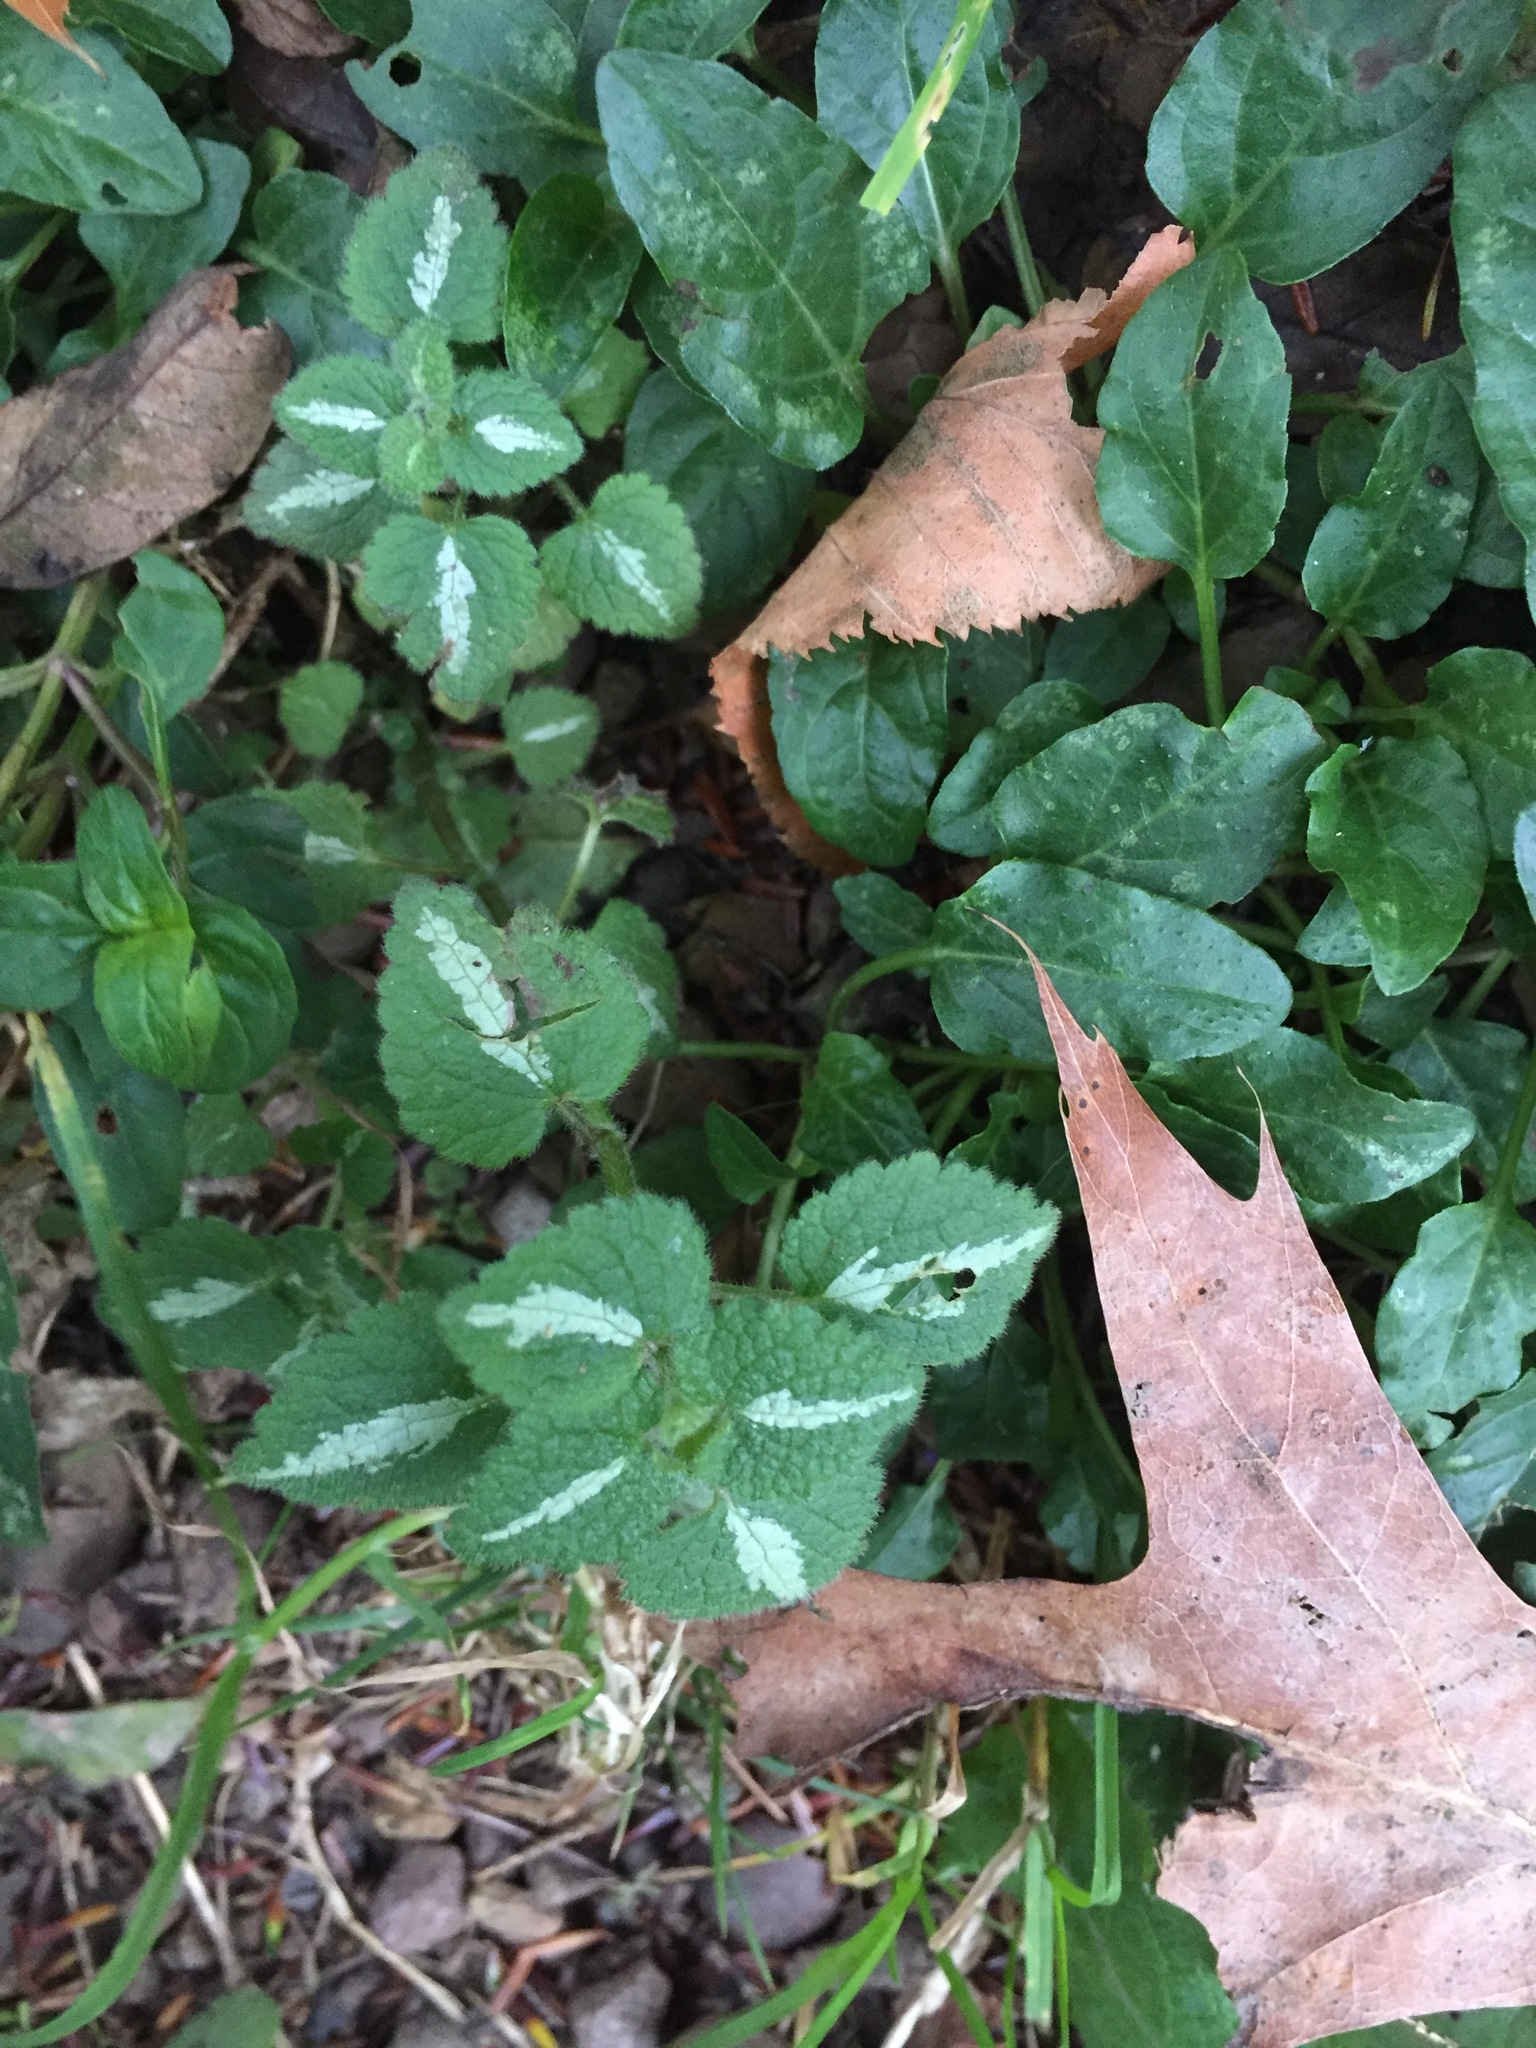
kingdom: Plantae
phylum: Tracheophyta
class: Magnoliopsida
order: Lamiales
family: Lamiaceae
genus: Lamium
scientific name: Lamium maculatum
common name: Spotted dead-nettle
